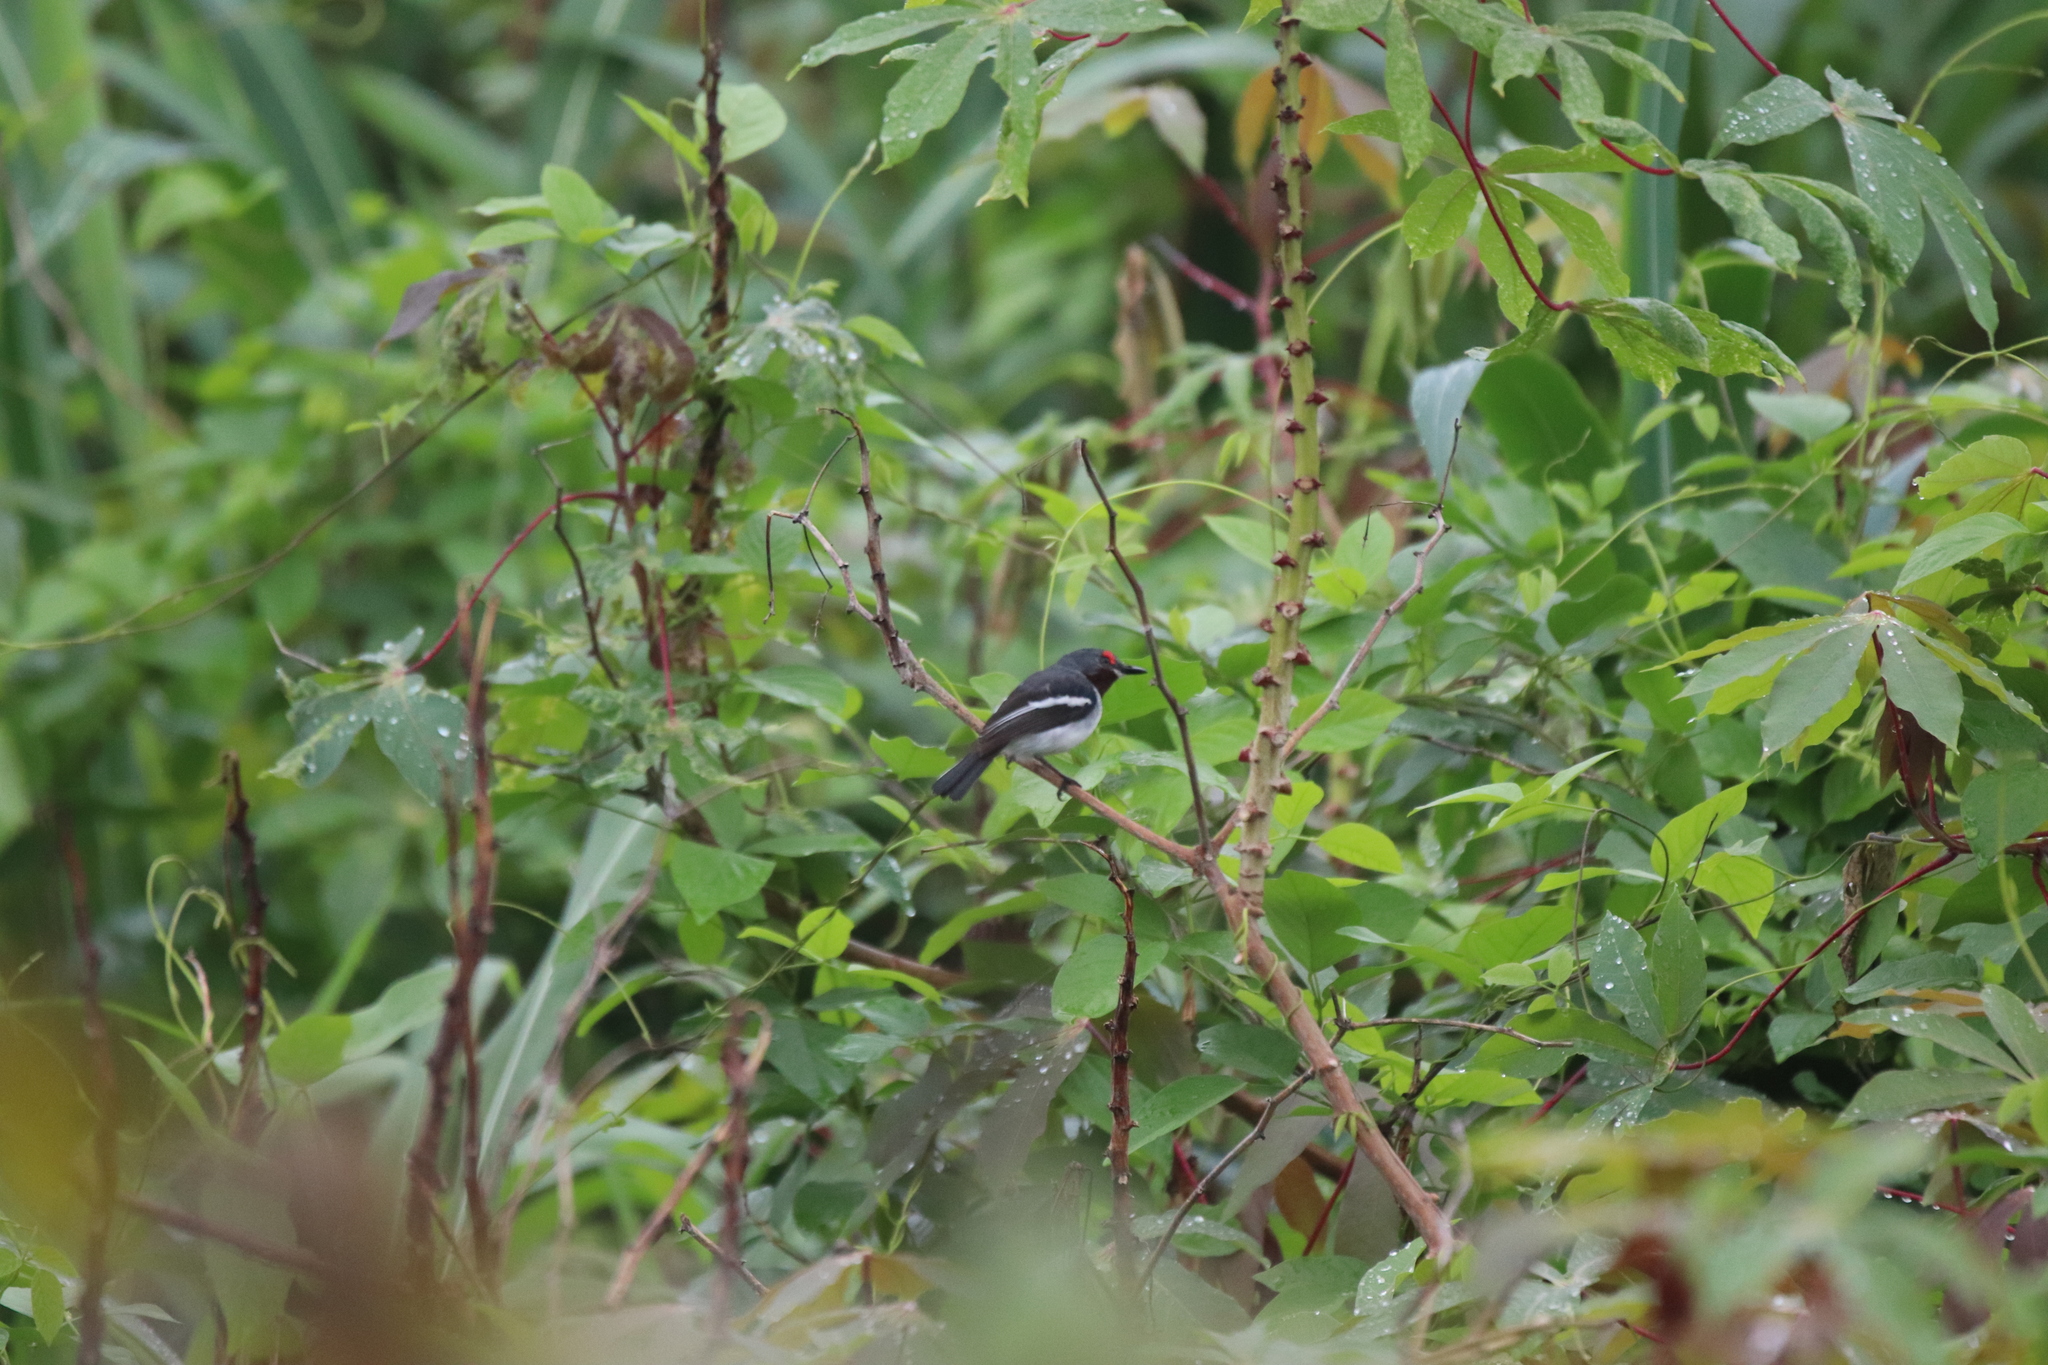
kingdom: Animalia
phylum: Chordata
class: Aves
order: Passeriformes
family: Platysteiridae
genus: Platysteira
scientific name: Platysteira cyanea
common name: Brown-throated wattle-eye
